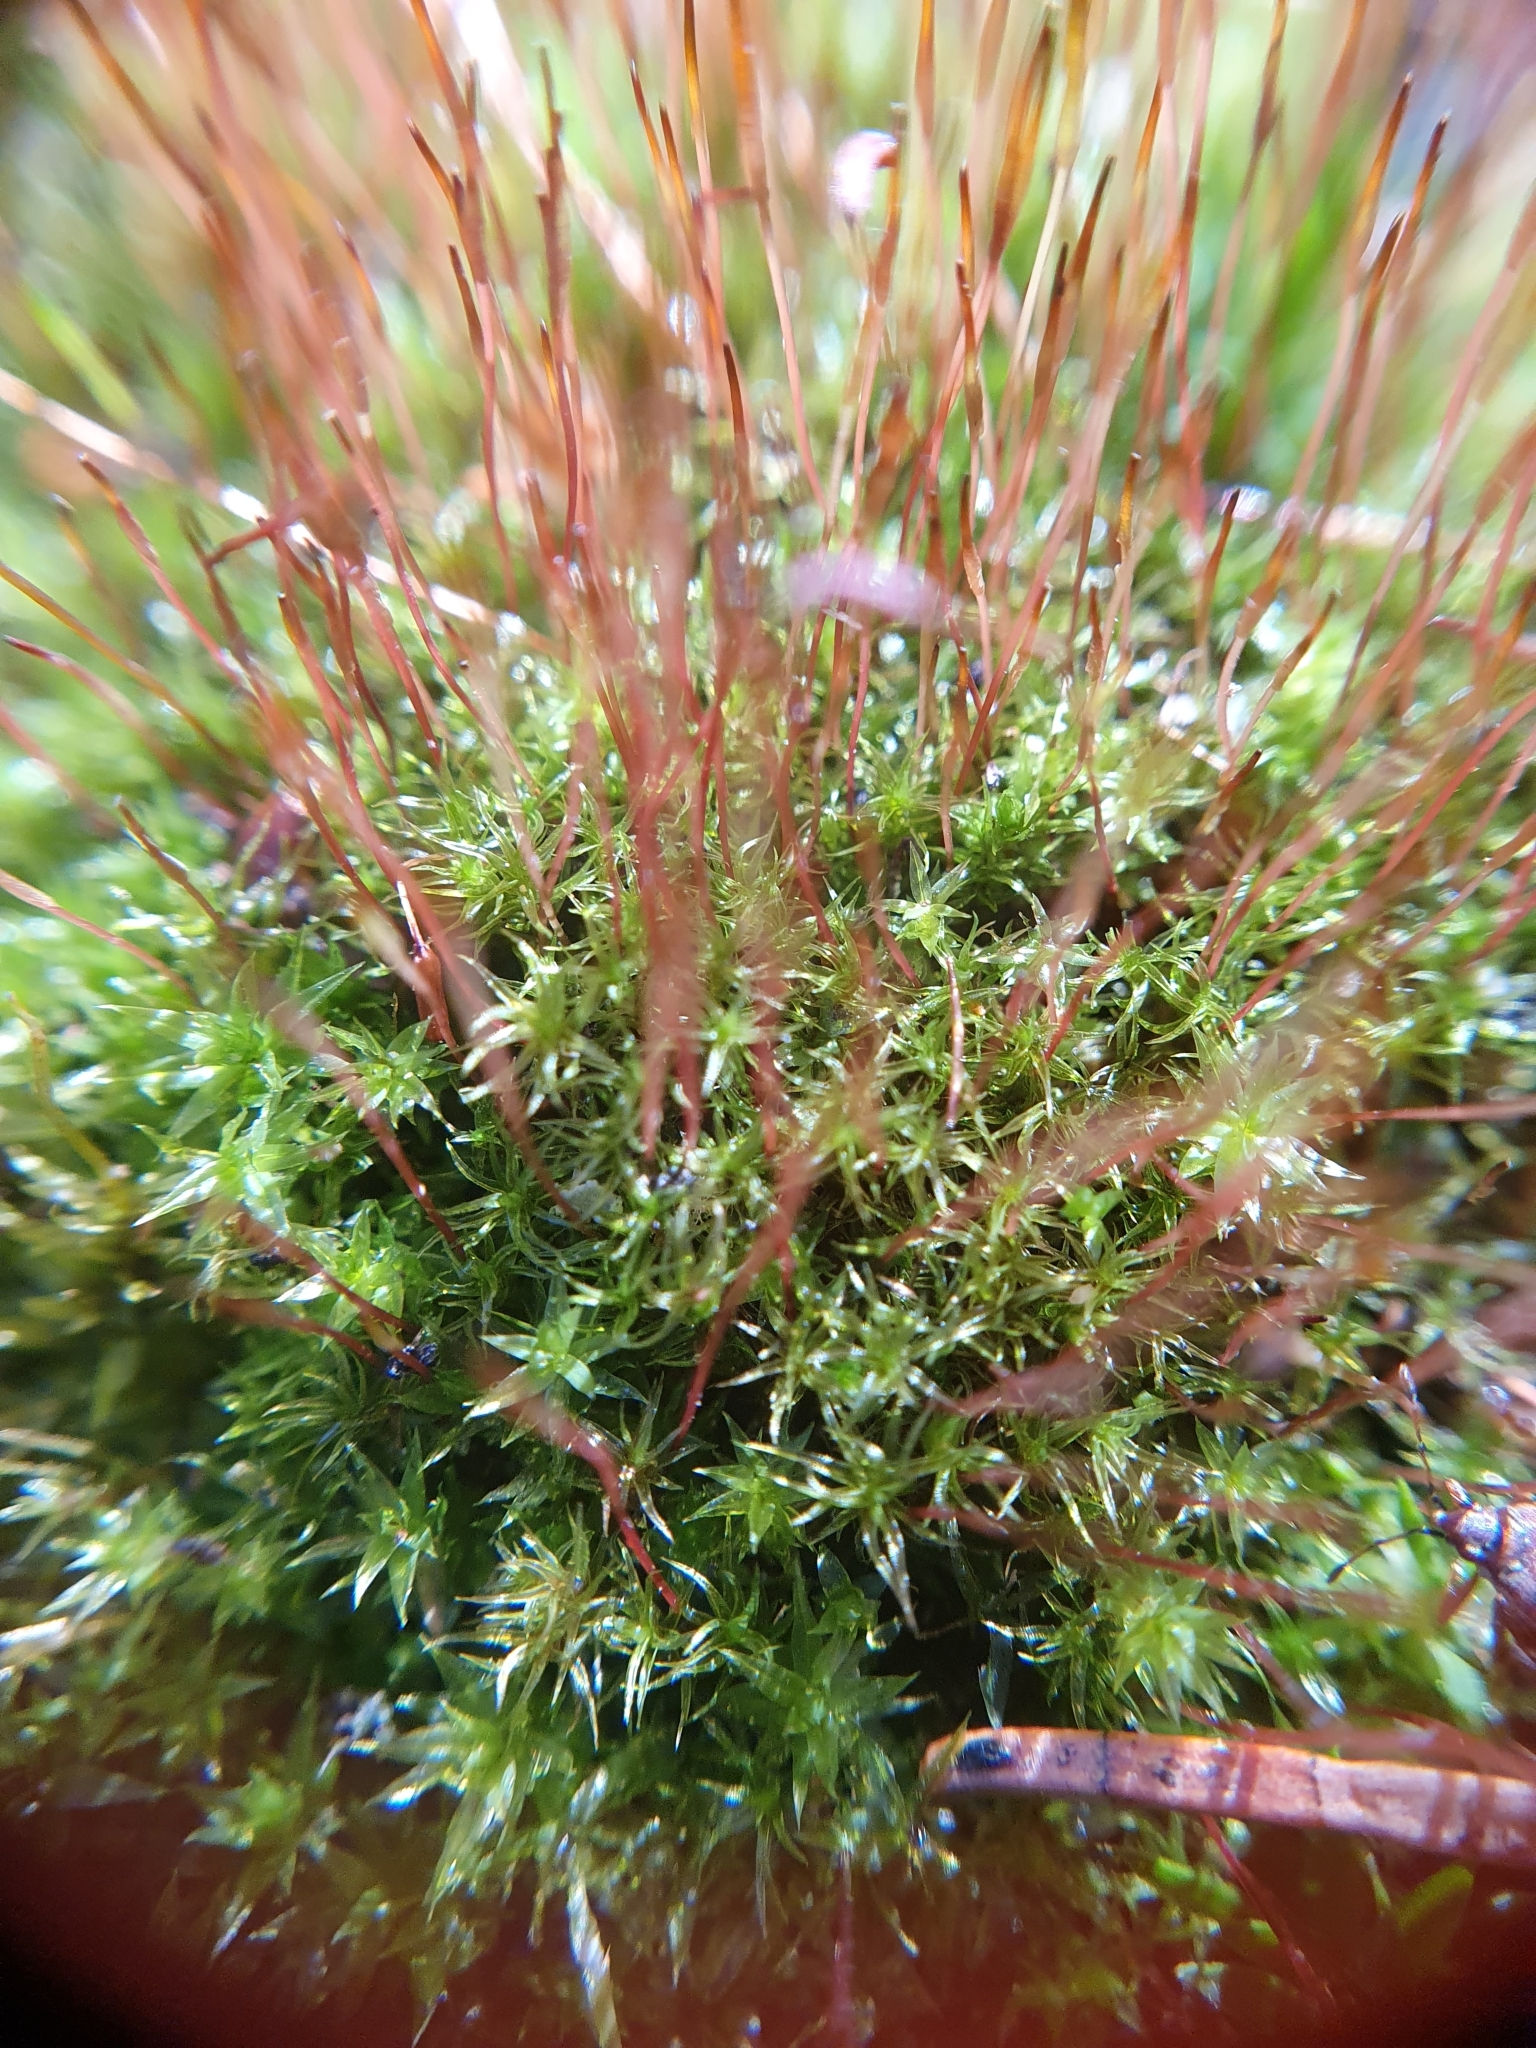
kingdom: Plantae
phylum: Bryophyta
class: Bryopsida
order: Dicranales
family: Ditrichaceae
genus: Ceratodon
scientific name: Ceratodon purpureus
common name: Redshank
